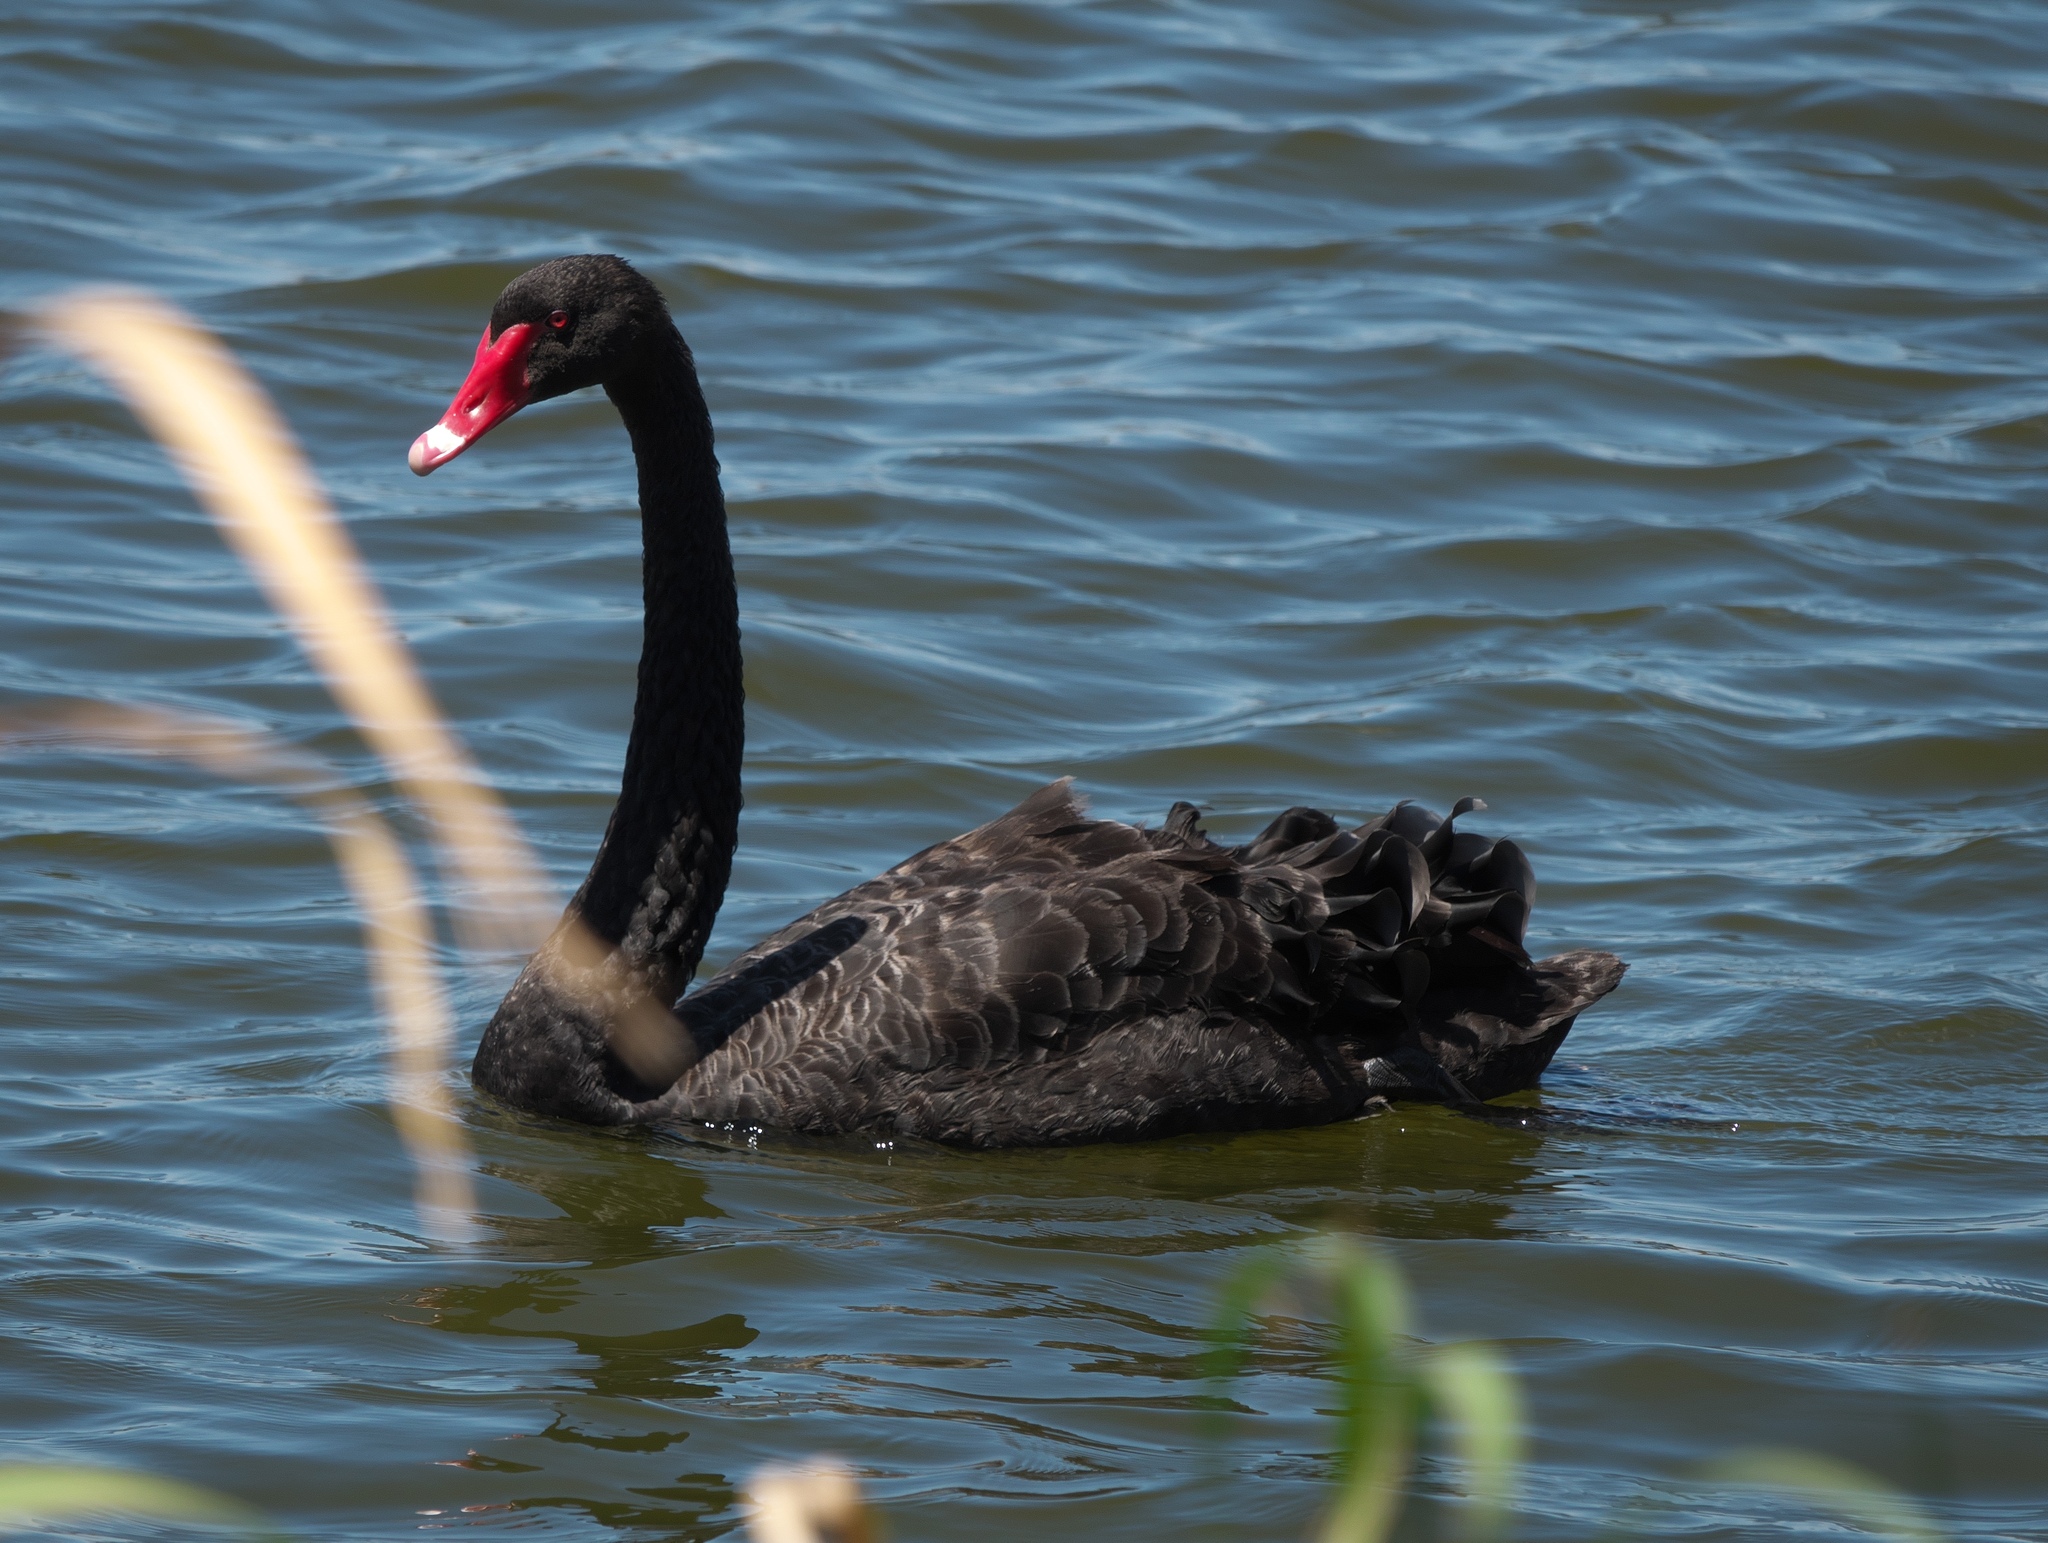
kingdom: Animalia
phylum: Chordata
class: Aves
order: Anseriformes
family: Anatidae
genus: Cygnus
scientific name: Cygnus atratus
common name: Black swan
